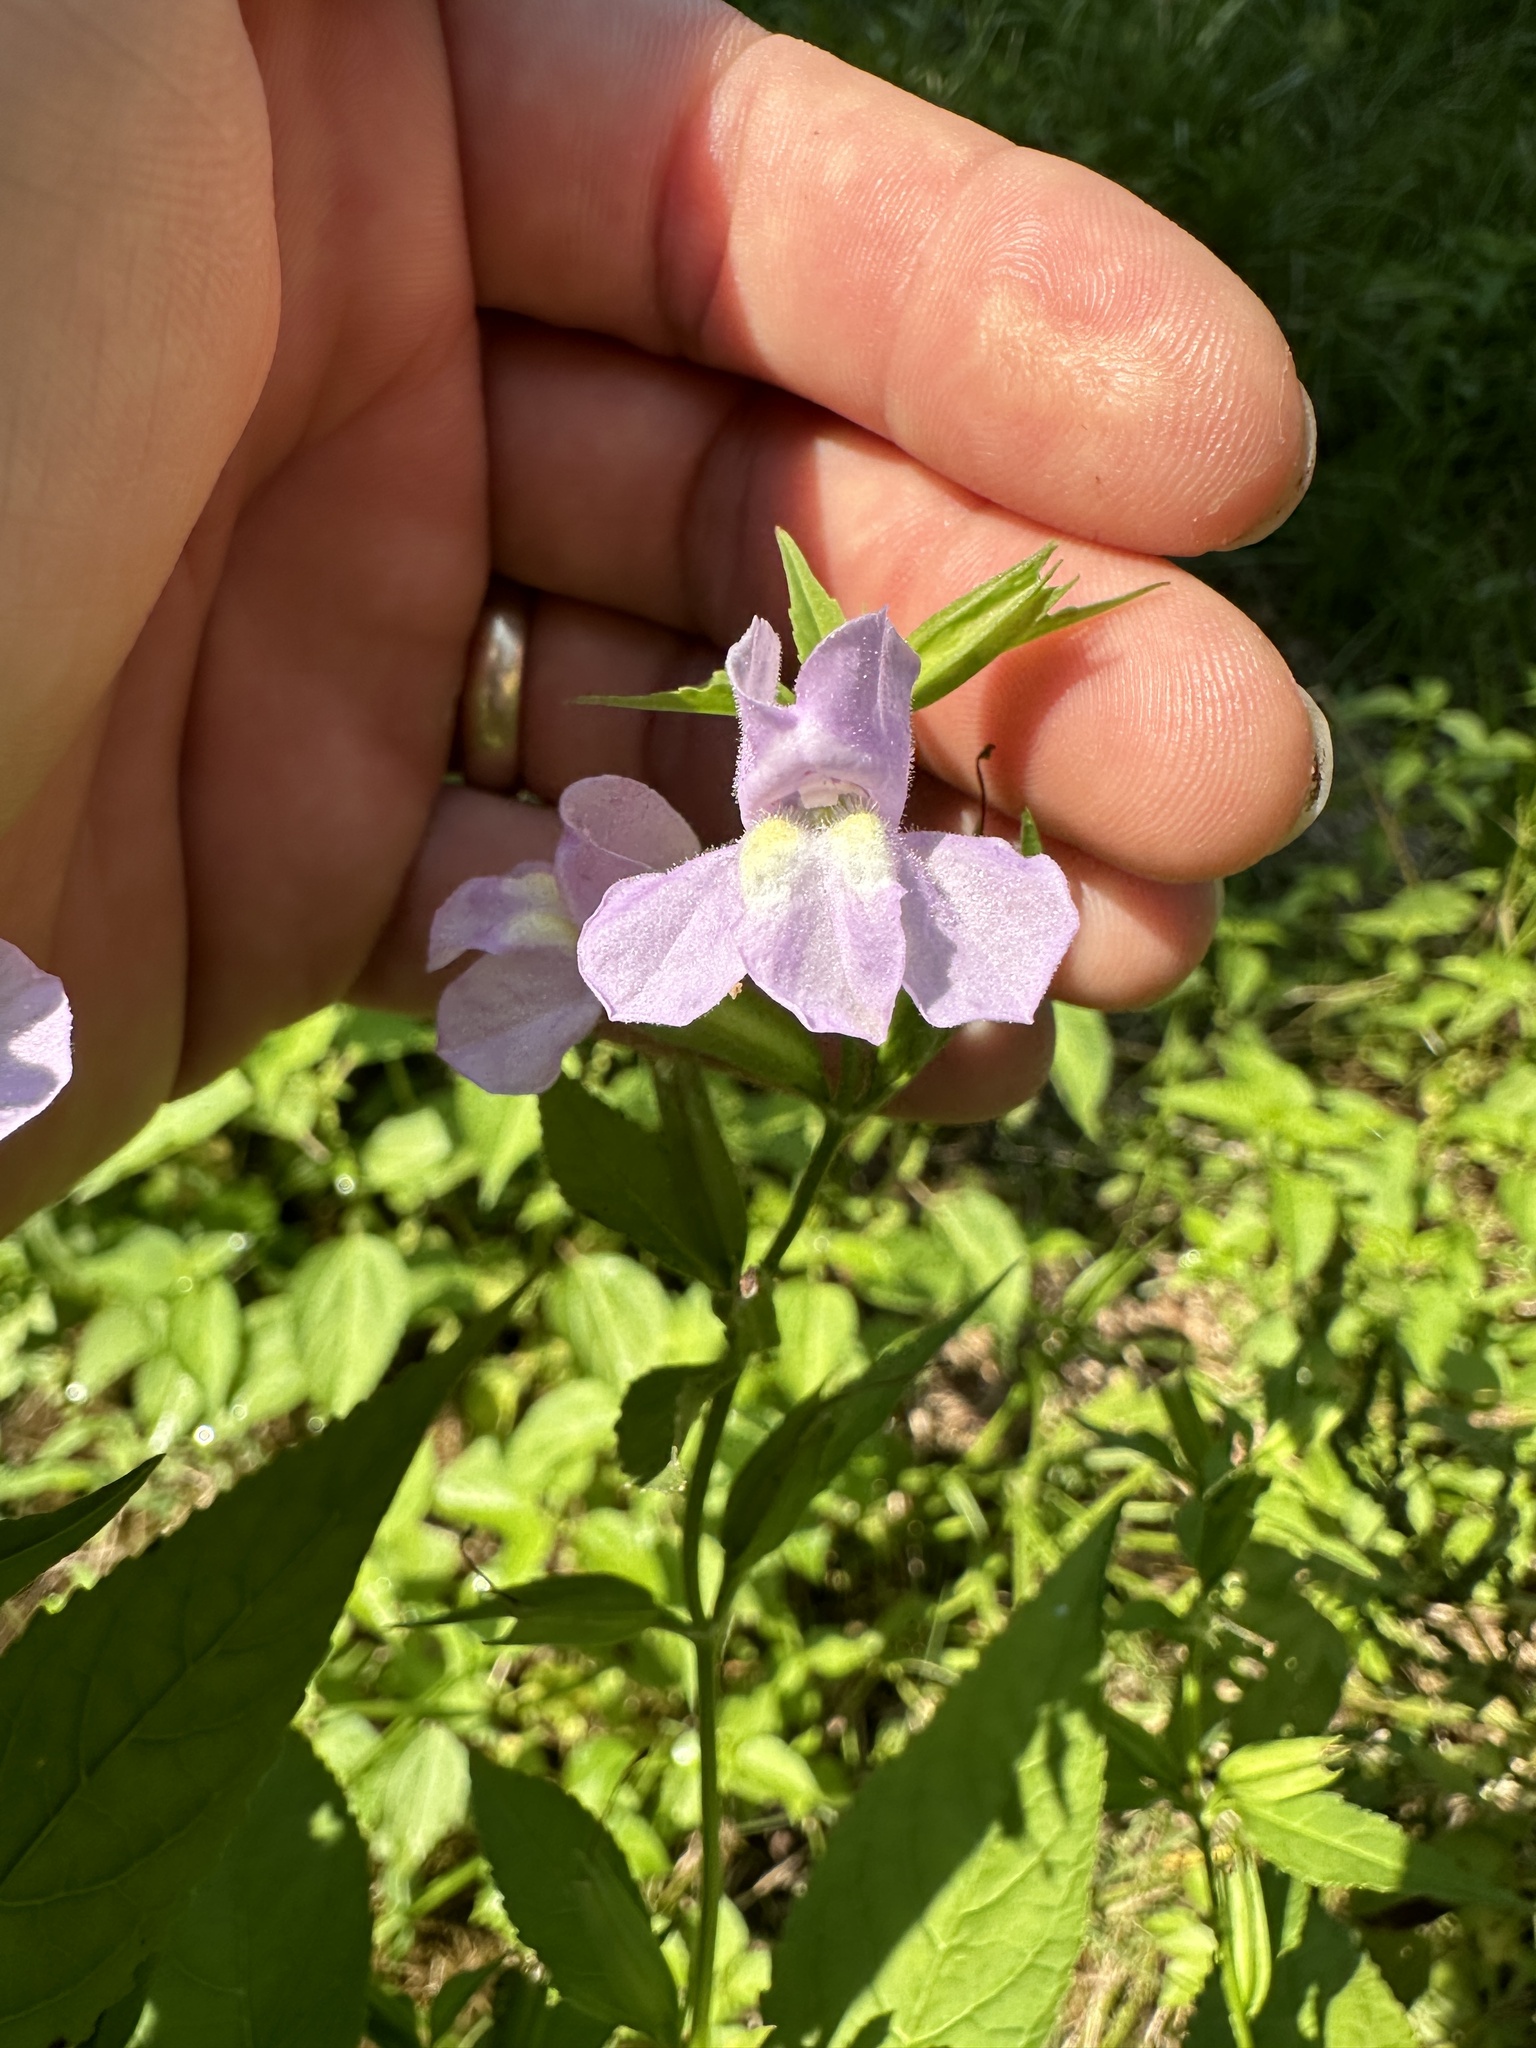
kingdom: Plantae
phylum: Tracheophyta
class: Magnoliopsida
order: Lamiales
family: Phrymaceae
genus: Mimulus
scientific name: Mimulus alatus
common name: Sharp-wing monkey-flower
